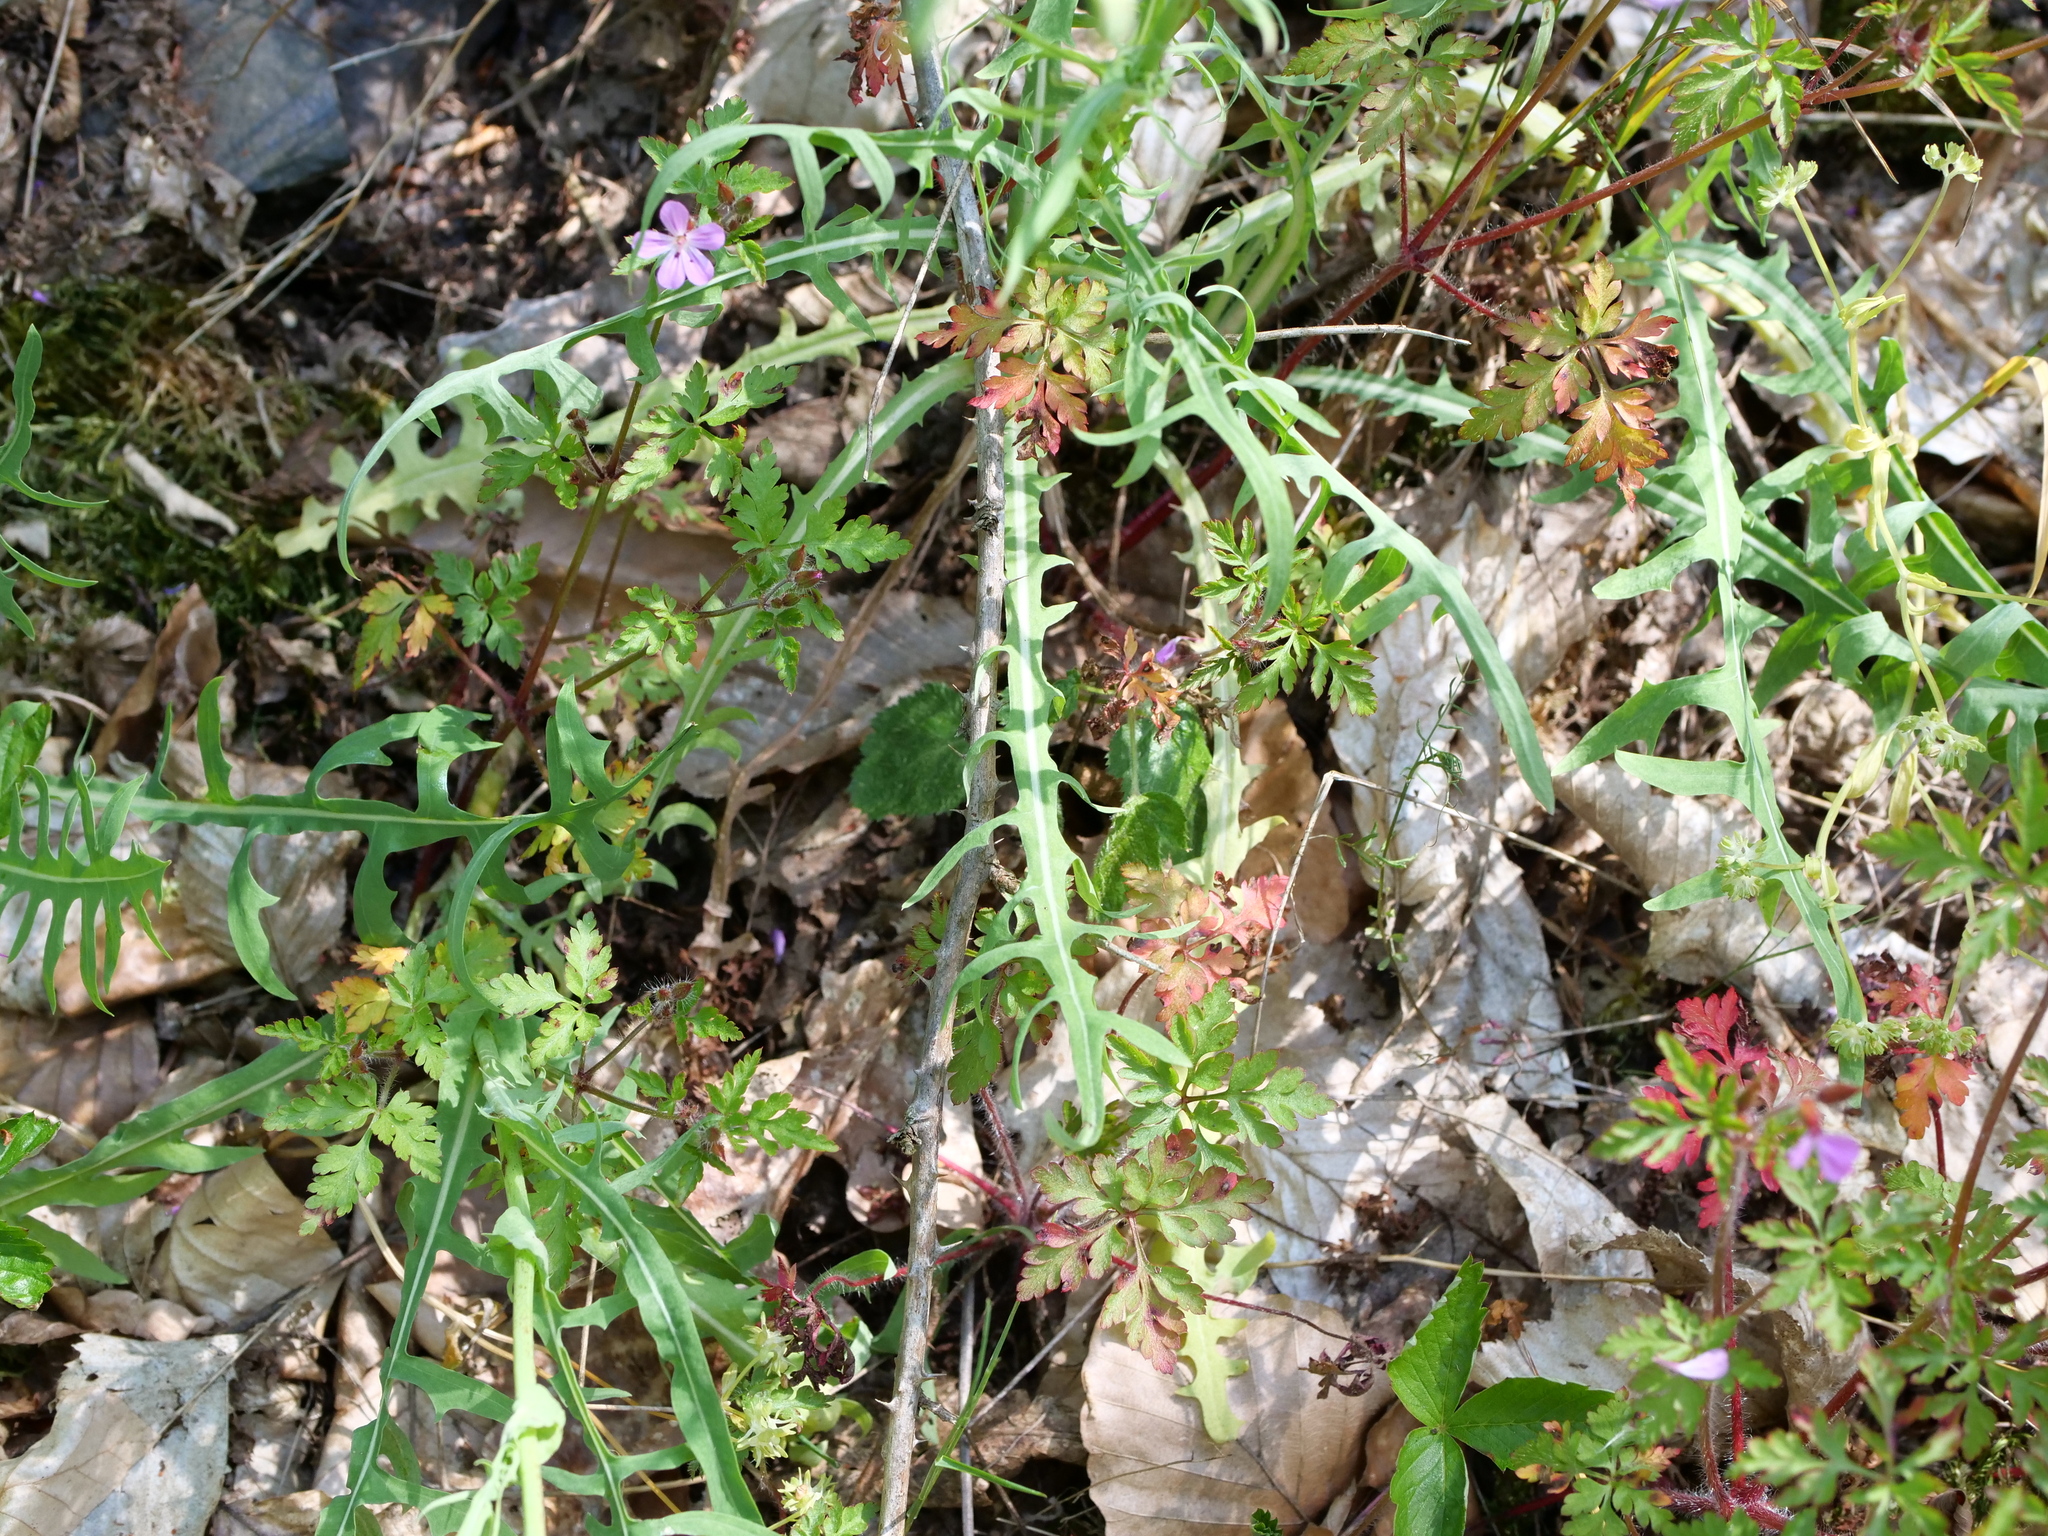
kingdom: Plantae
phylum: Tracheophyta
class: Magnoliopsida
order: Asterales
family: Asteraceae
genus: Lactuca
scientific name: Lactuca perennis
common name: Mountain lettuce
